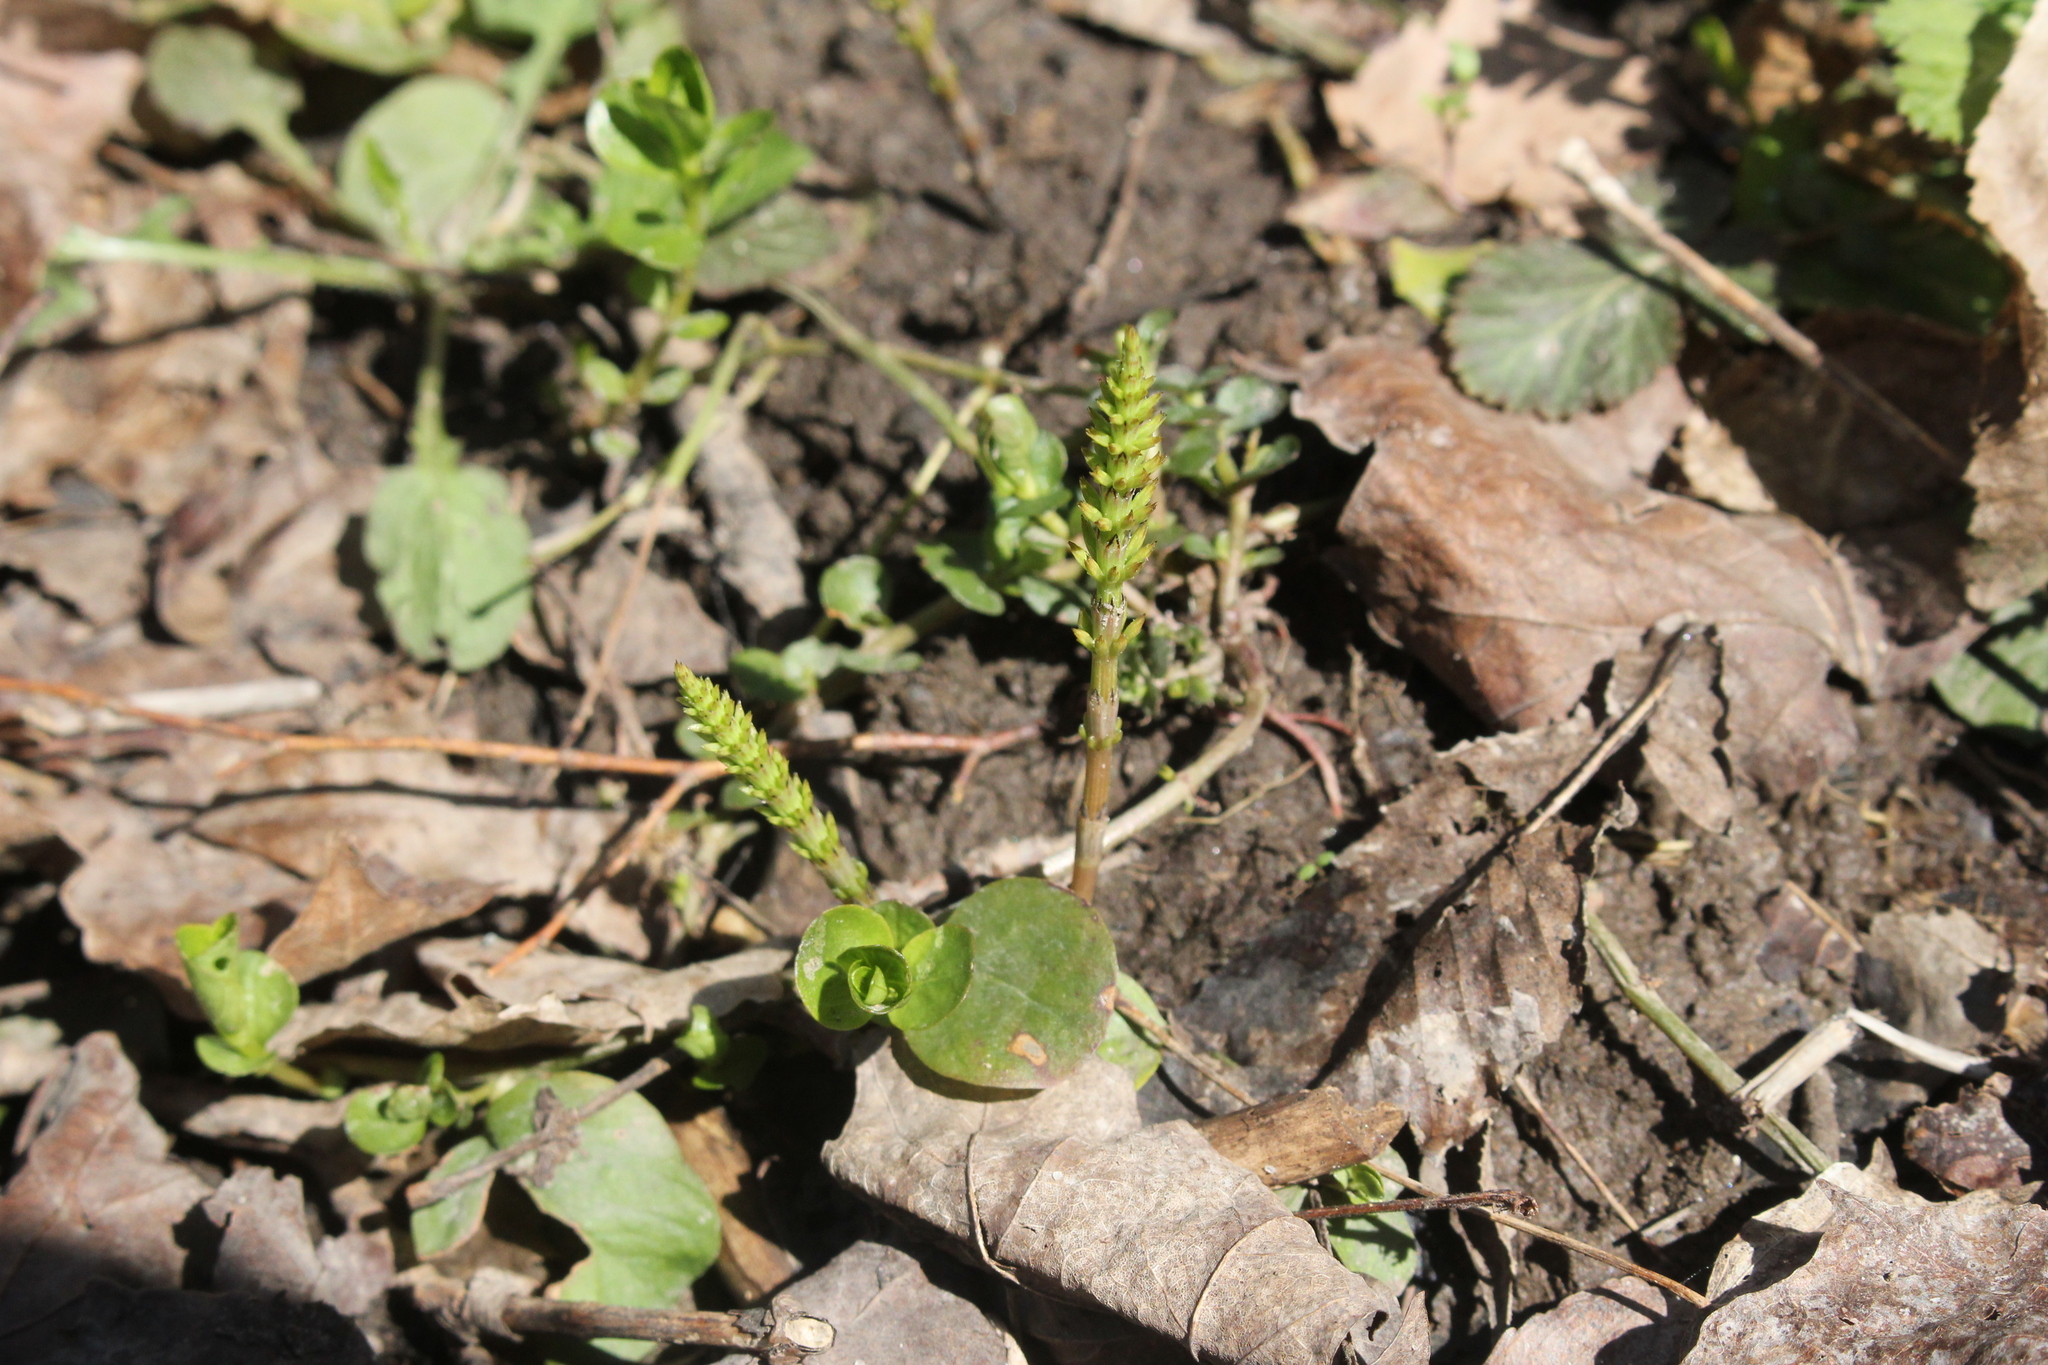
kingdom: Plantae
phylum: Tracheophyta
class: Polypodiopsida
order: Equisetales
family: Equisetaceae
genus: Equisetum
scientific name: Equisetum arvense
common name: Field horsetail
